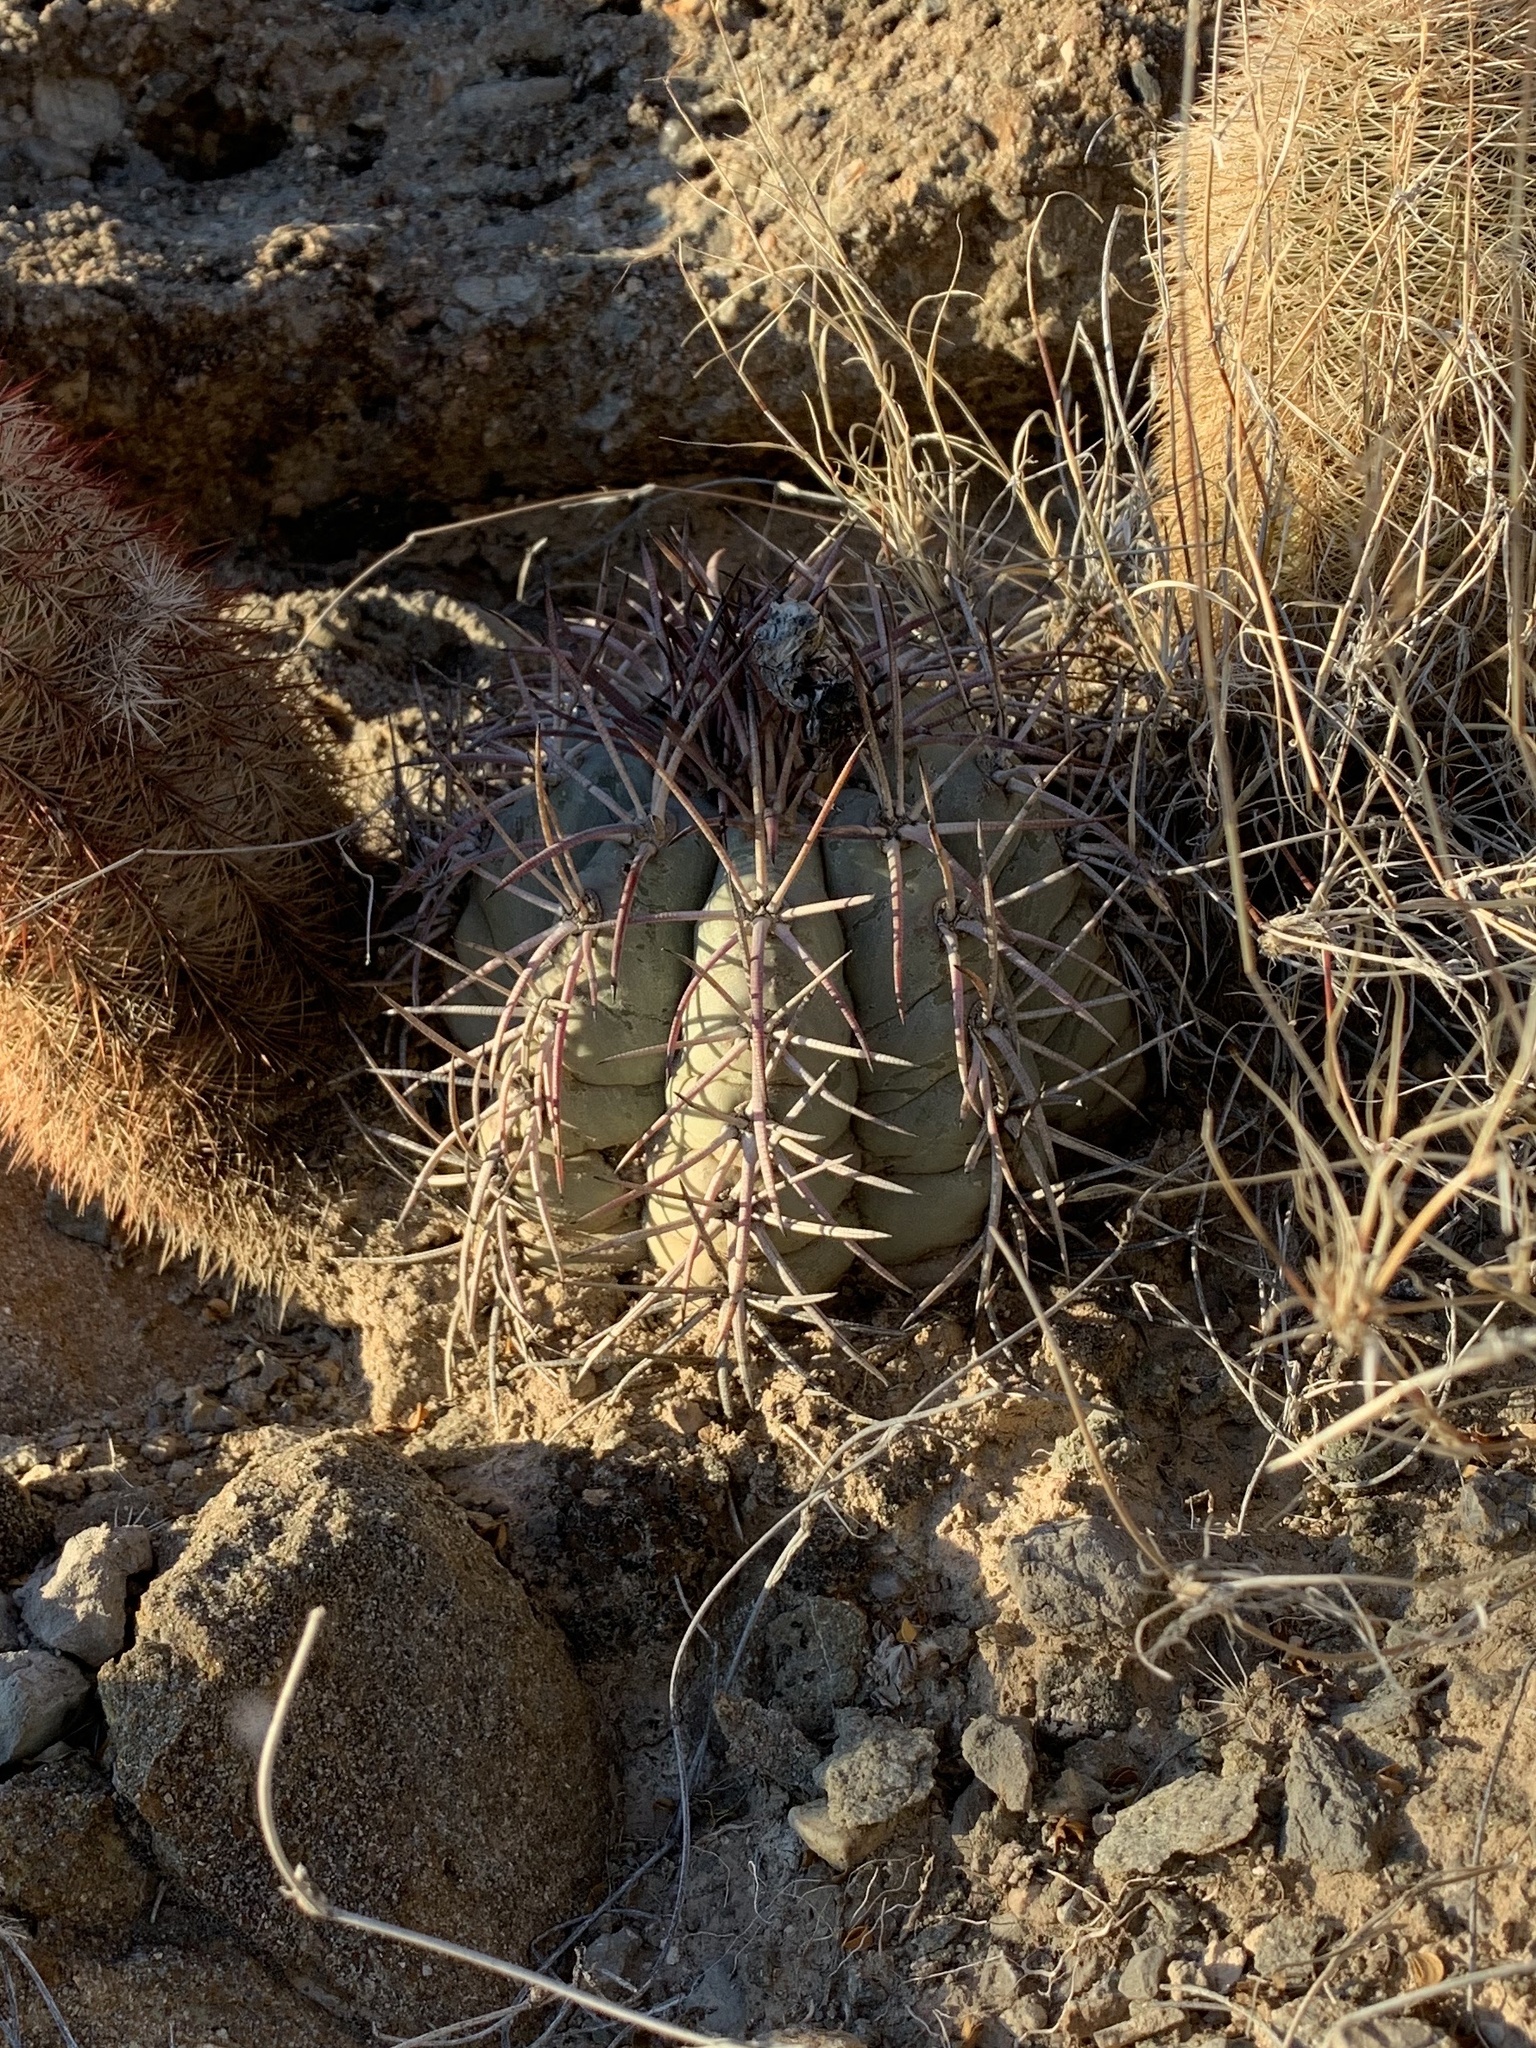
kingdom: Plantae
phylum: Tracheophyta
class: Magnoliopsida
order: Caryophyllales
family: Cactaceae
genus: Echinocactus
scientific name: Echinocactus horizonthalonius
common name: Devilshead
